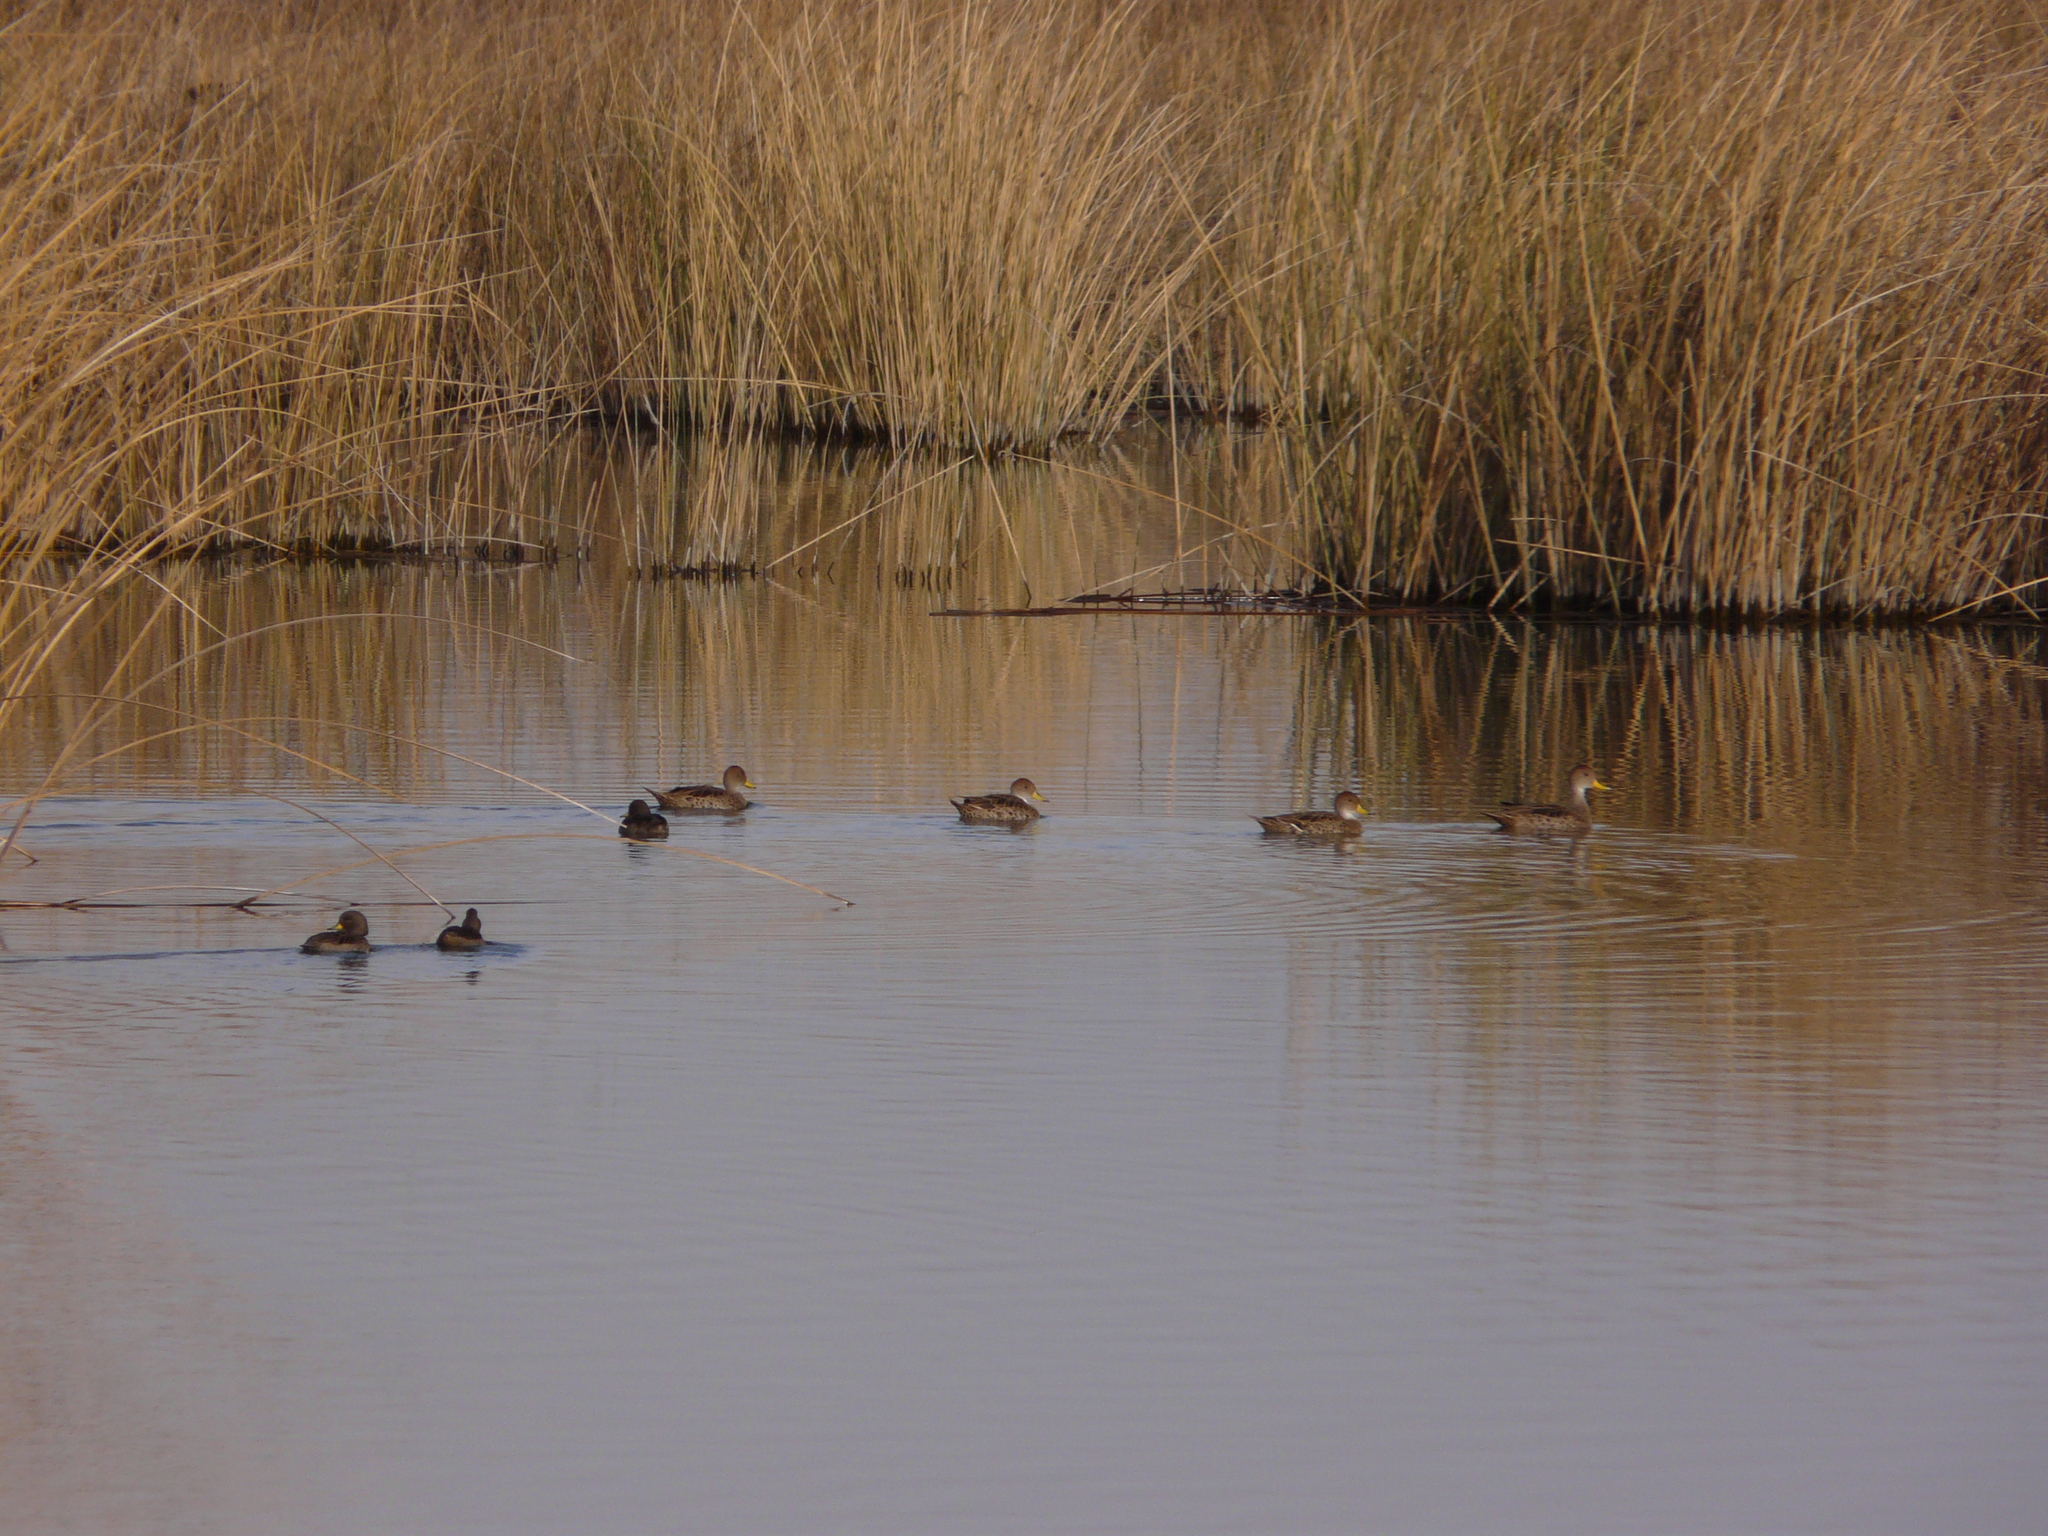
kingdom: Animalia
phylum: Chordata
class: Aves
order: Anseriformes
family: Anatidae
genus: Anas
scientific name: Anas georgica
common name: Yellow-billed pintail
